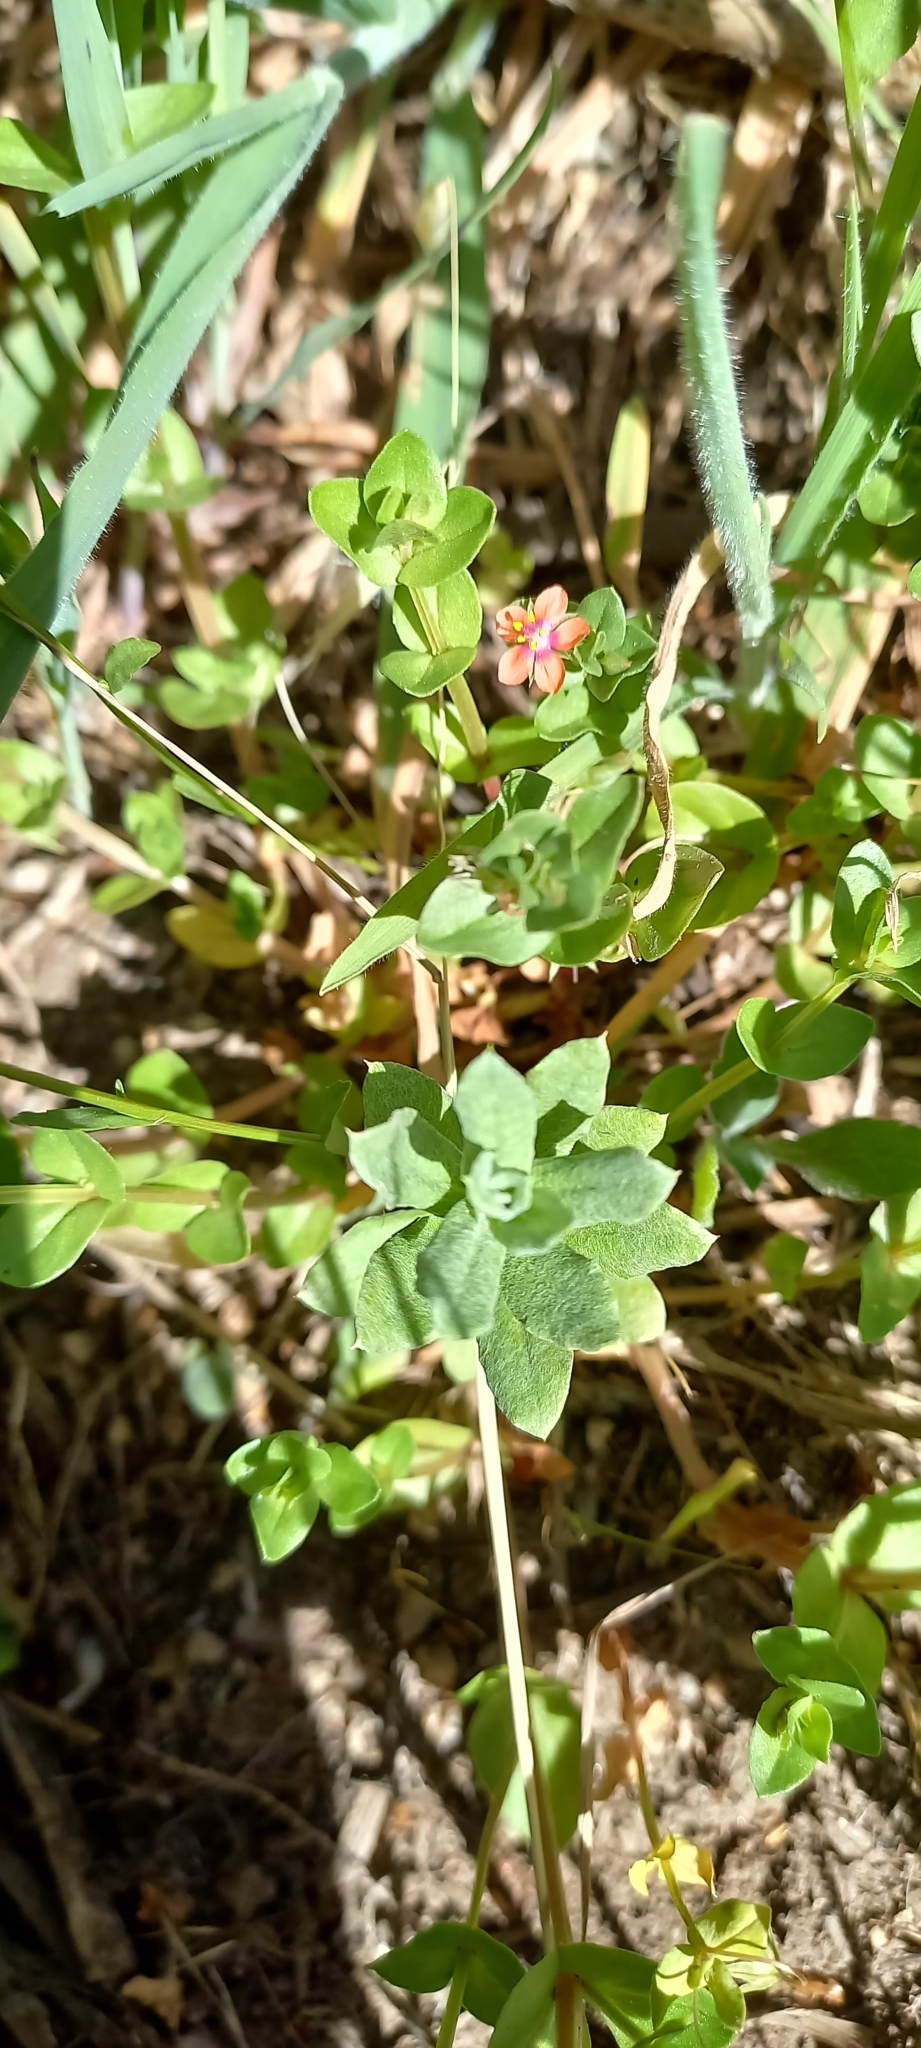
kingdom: Plantae
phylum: Tracheophyta
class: Magnoliopsida
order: Ericales
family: Primulaceae
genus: Lysimachia
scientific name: Lysimachia arvensis
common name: Scarlet pimpernel
